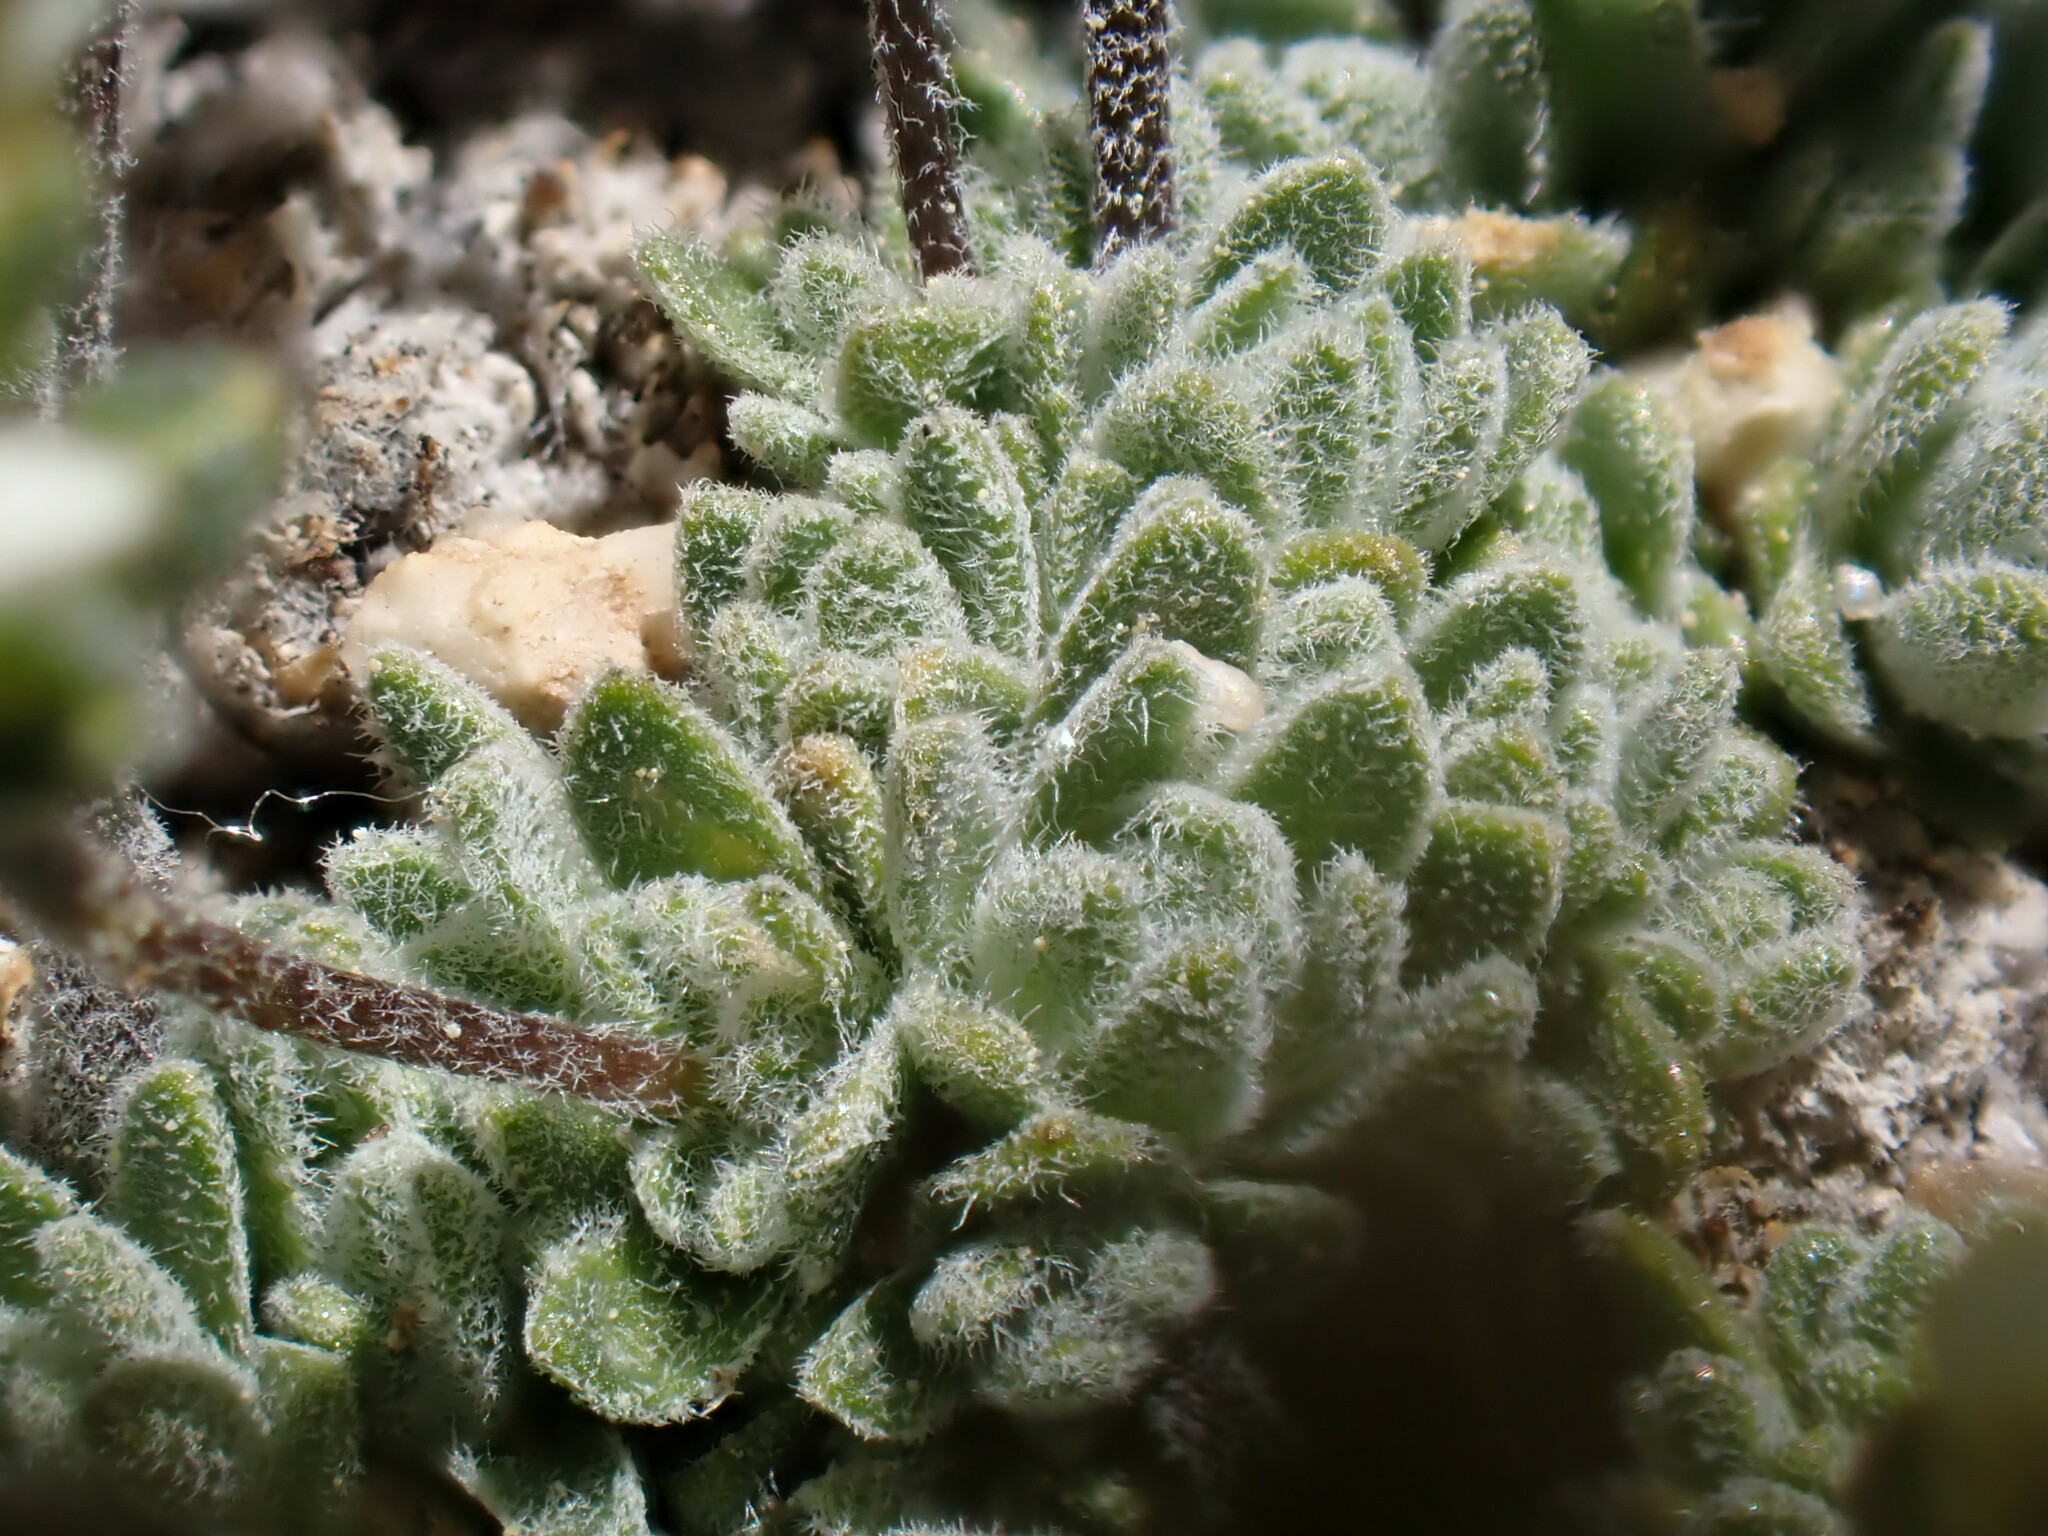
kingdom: Plantae
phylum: Tracheophyta
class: Magnoliopsida
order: Brassicales
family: Brassicaceae
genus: Draba
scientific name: Draba breweri
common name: Cushion draba
